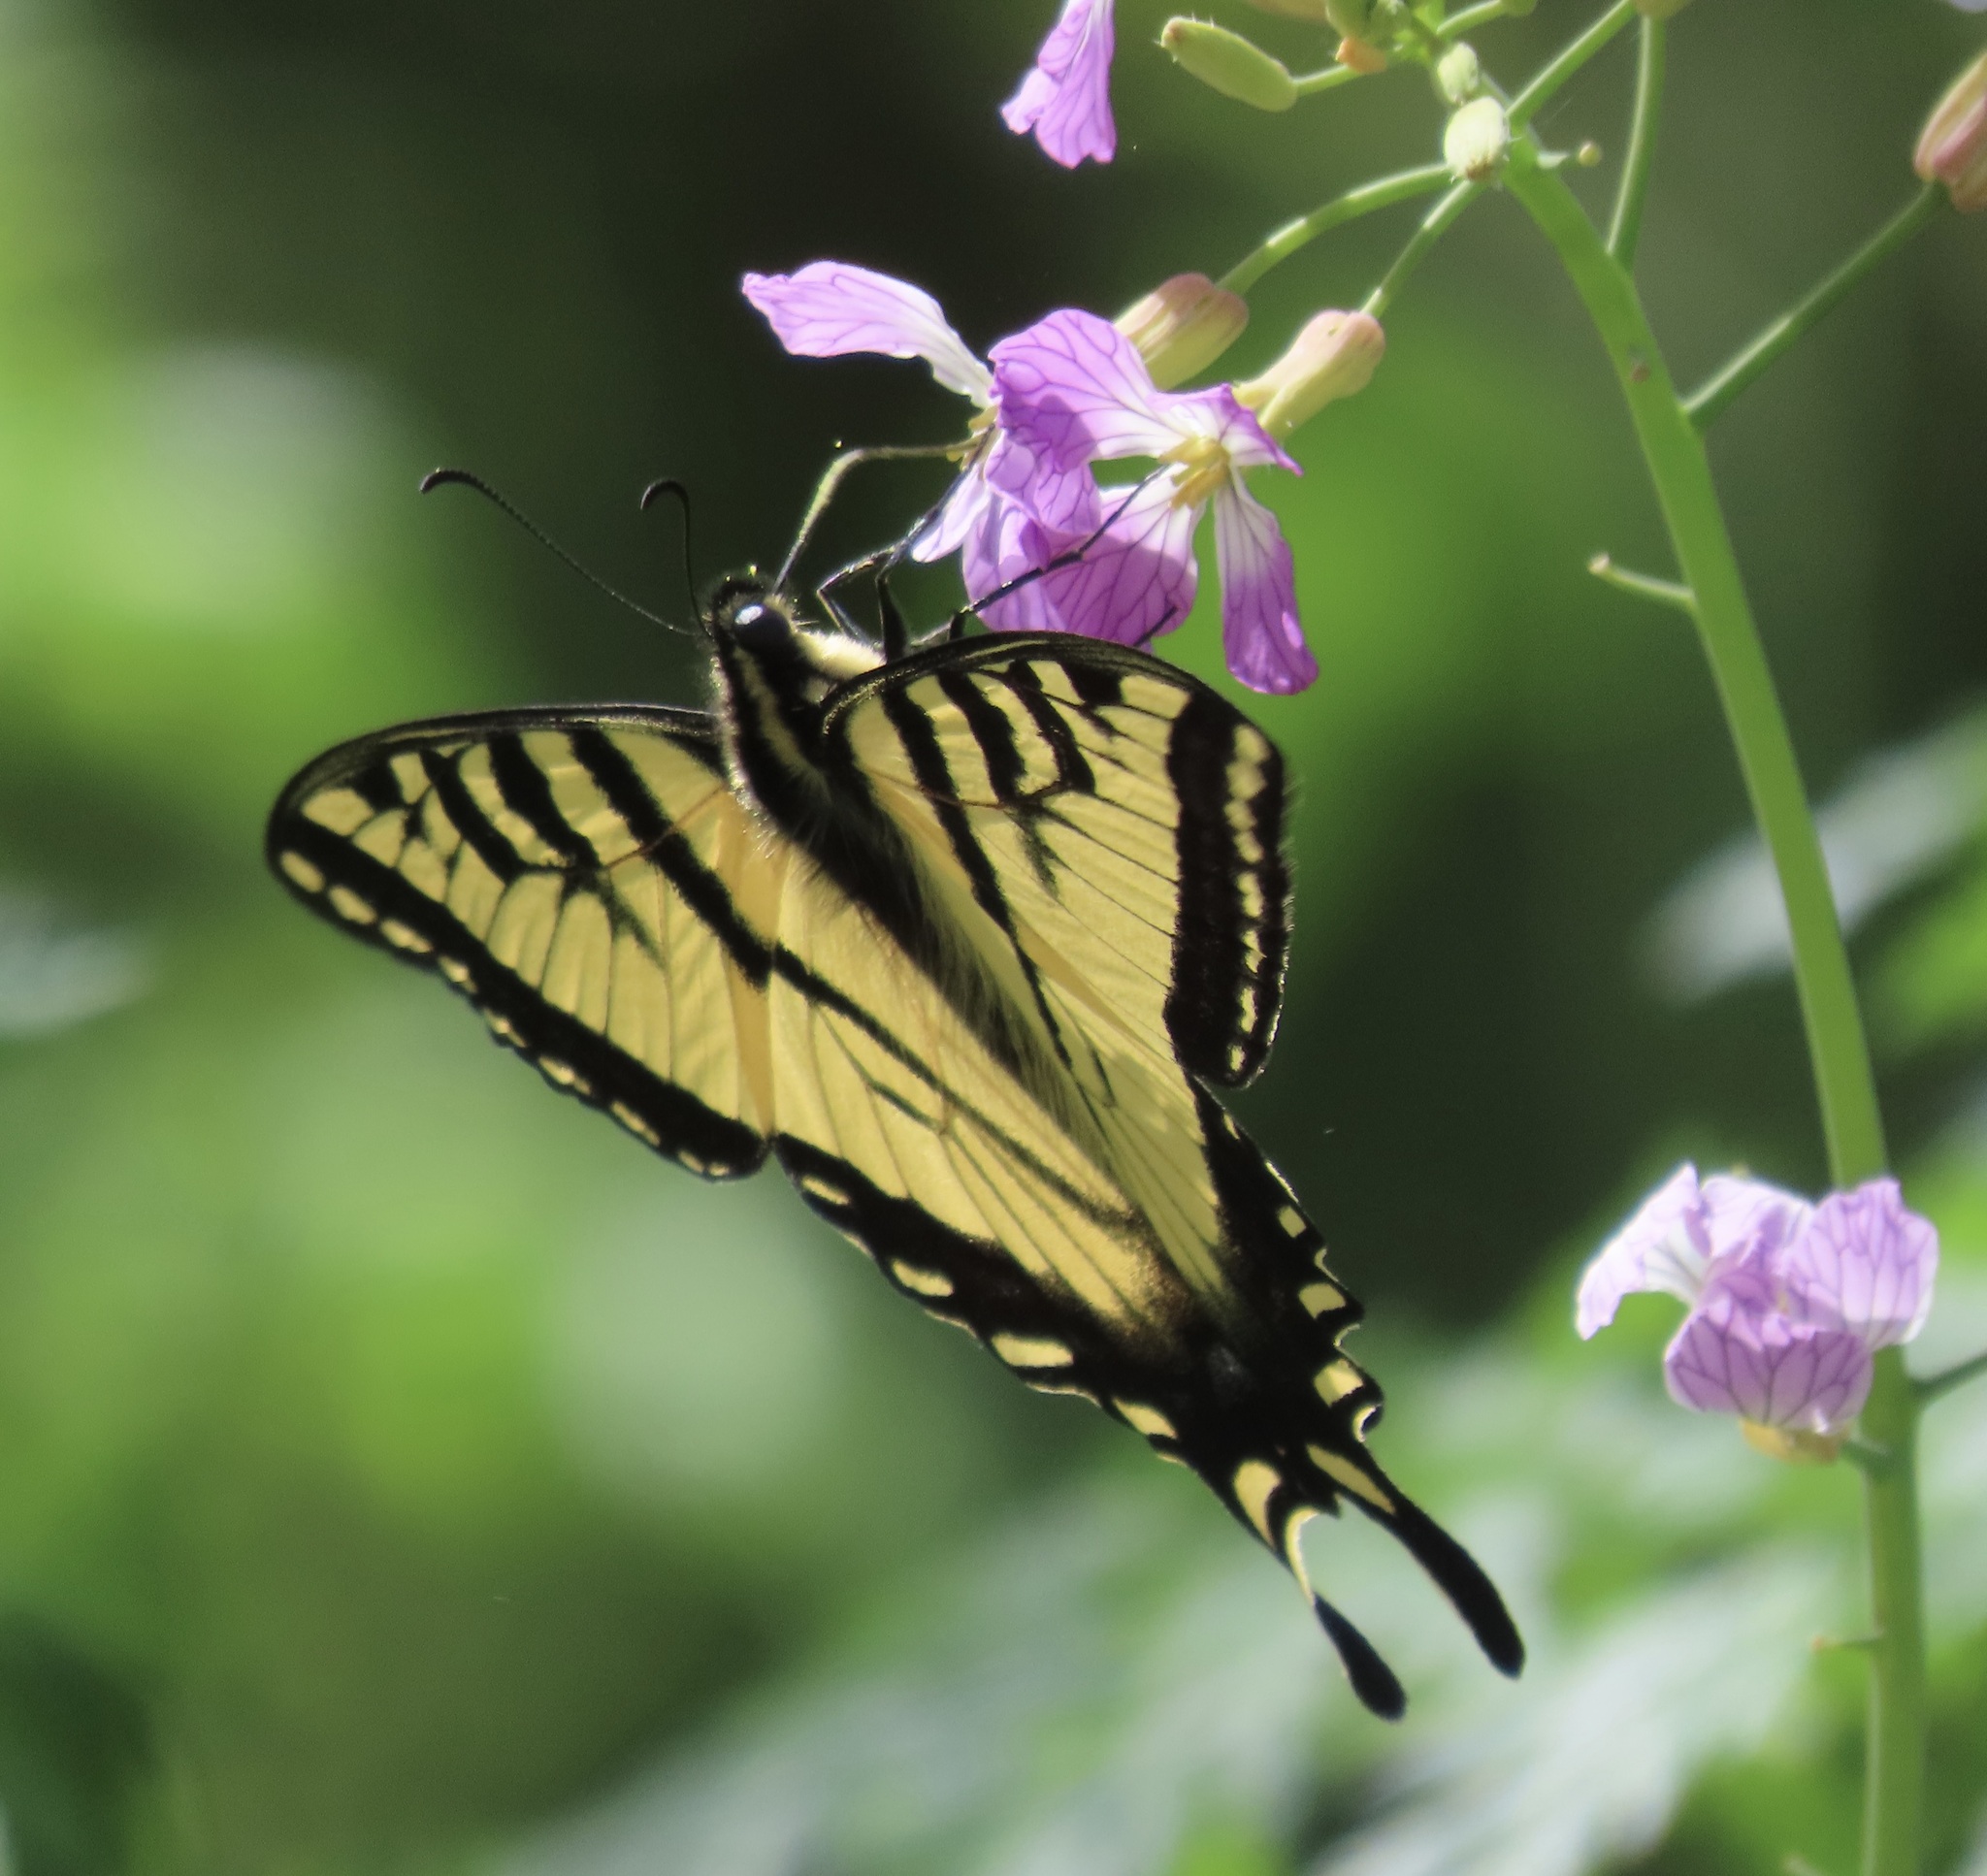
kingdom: Animalia
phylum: Arthropoda
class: Insecta
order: Lepidoptera
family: Papilionidae
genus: Papilio
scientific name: Papilio rutulus
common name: Western tiger swallowtail
